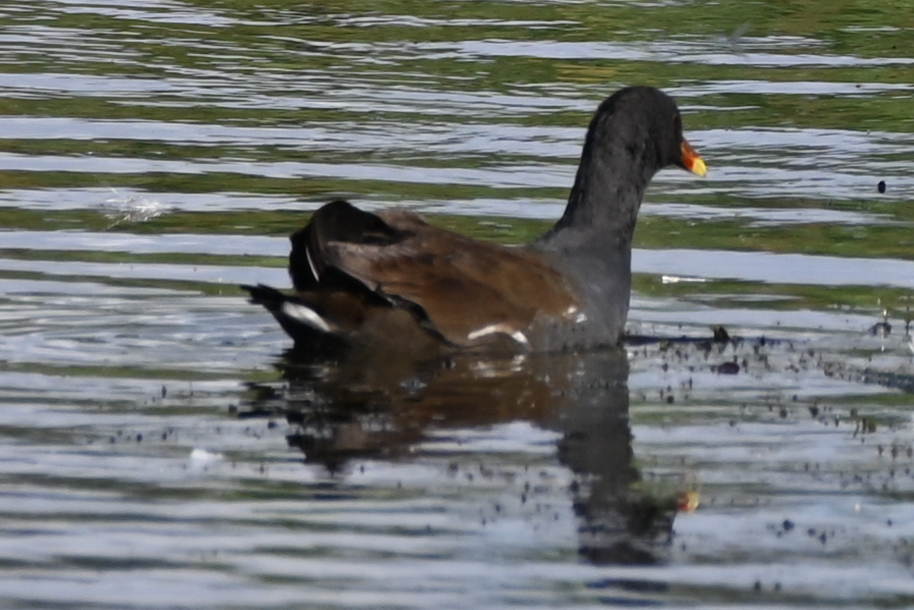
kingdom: Animalia
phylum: Chordata
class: Aves
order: Gruiformes
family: Rallidae
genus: Gallinula
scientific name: Gallinula chloropus
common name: Common moorhen
